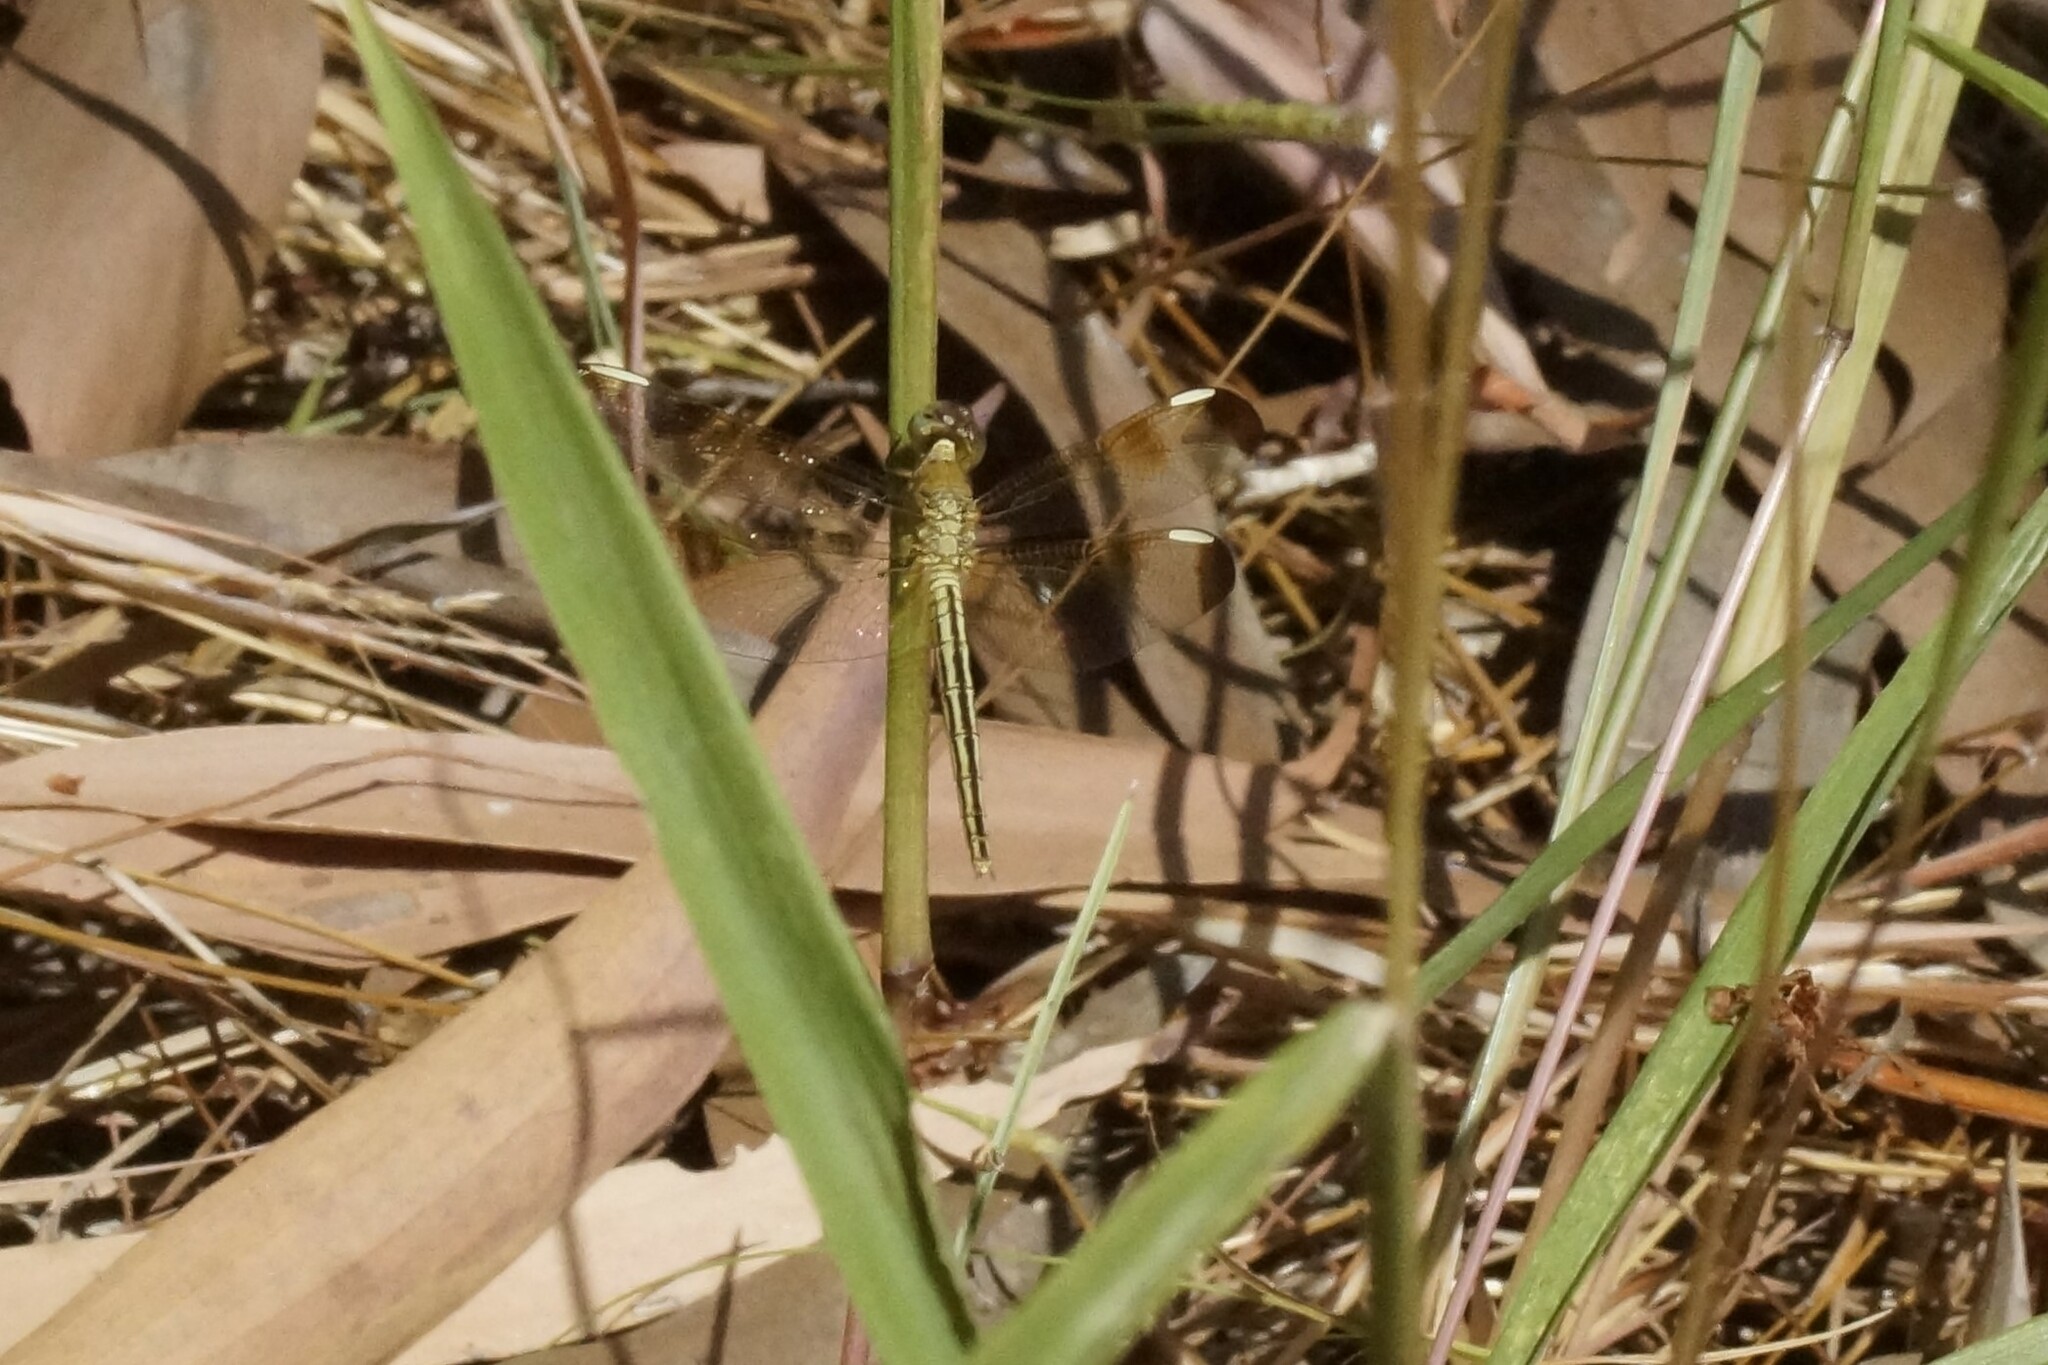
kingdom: Animalia
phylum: Arthropoda
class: Insecta
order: Odonata
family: Libellulidae
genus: Neurothemis
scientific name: Neurothemis stigmatizans
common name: Painted grasshawk
